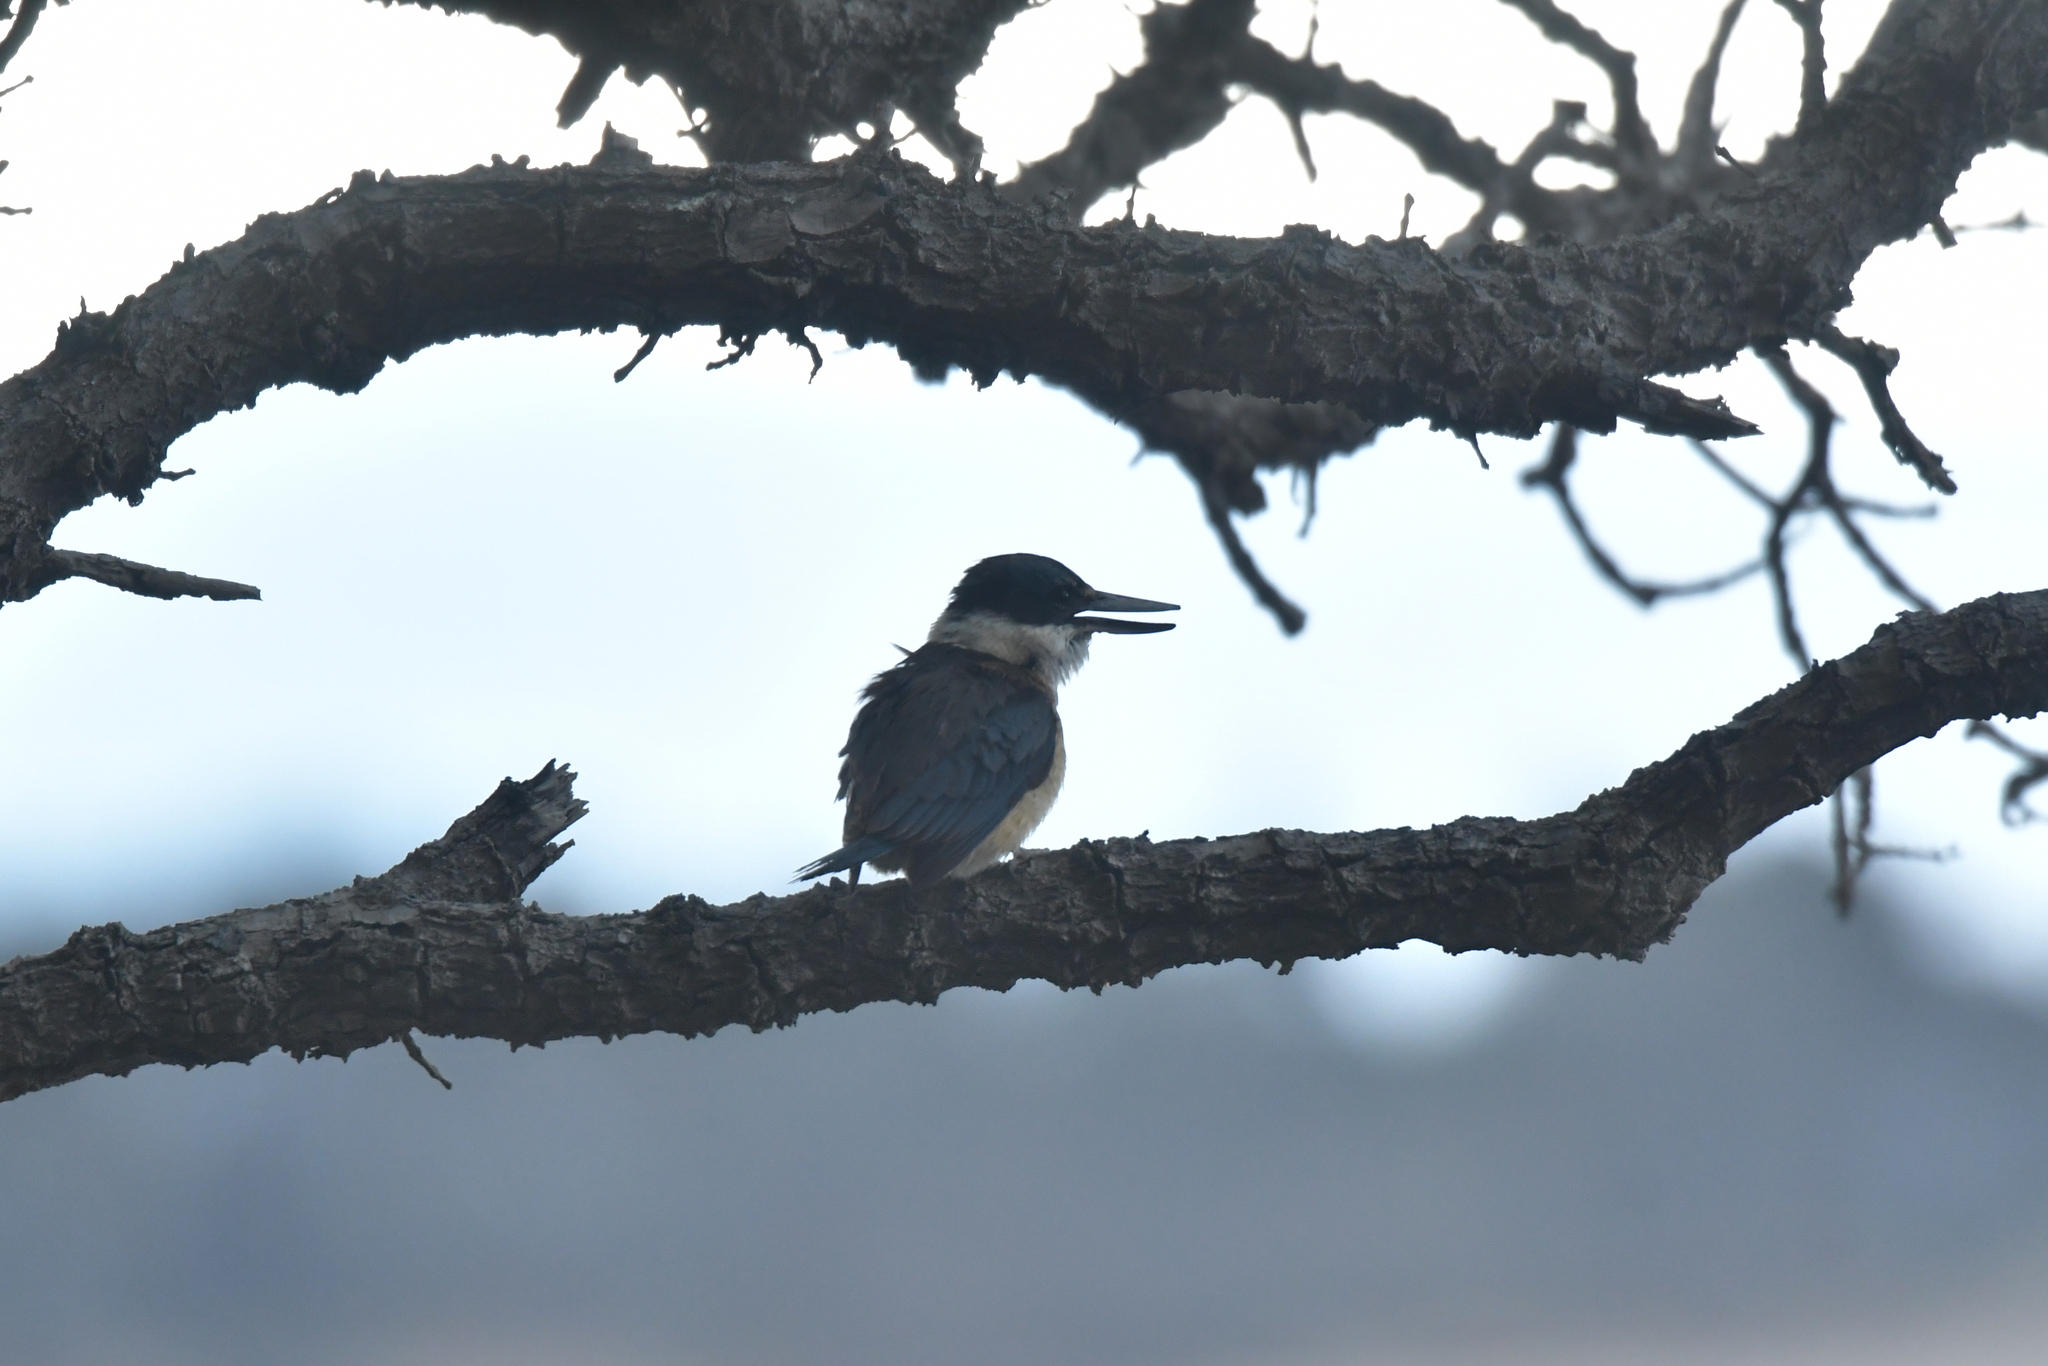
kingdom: Animalia
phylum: Chordata
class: Aves
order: Coraciiformes
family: Alcedinidae
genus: Todiramphus
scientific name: Todiramphus sanctus
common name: Sacred kingfisher
